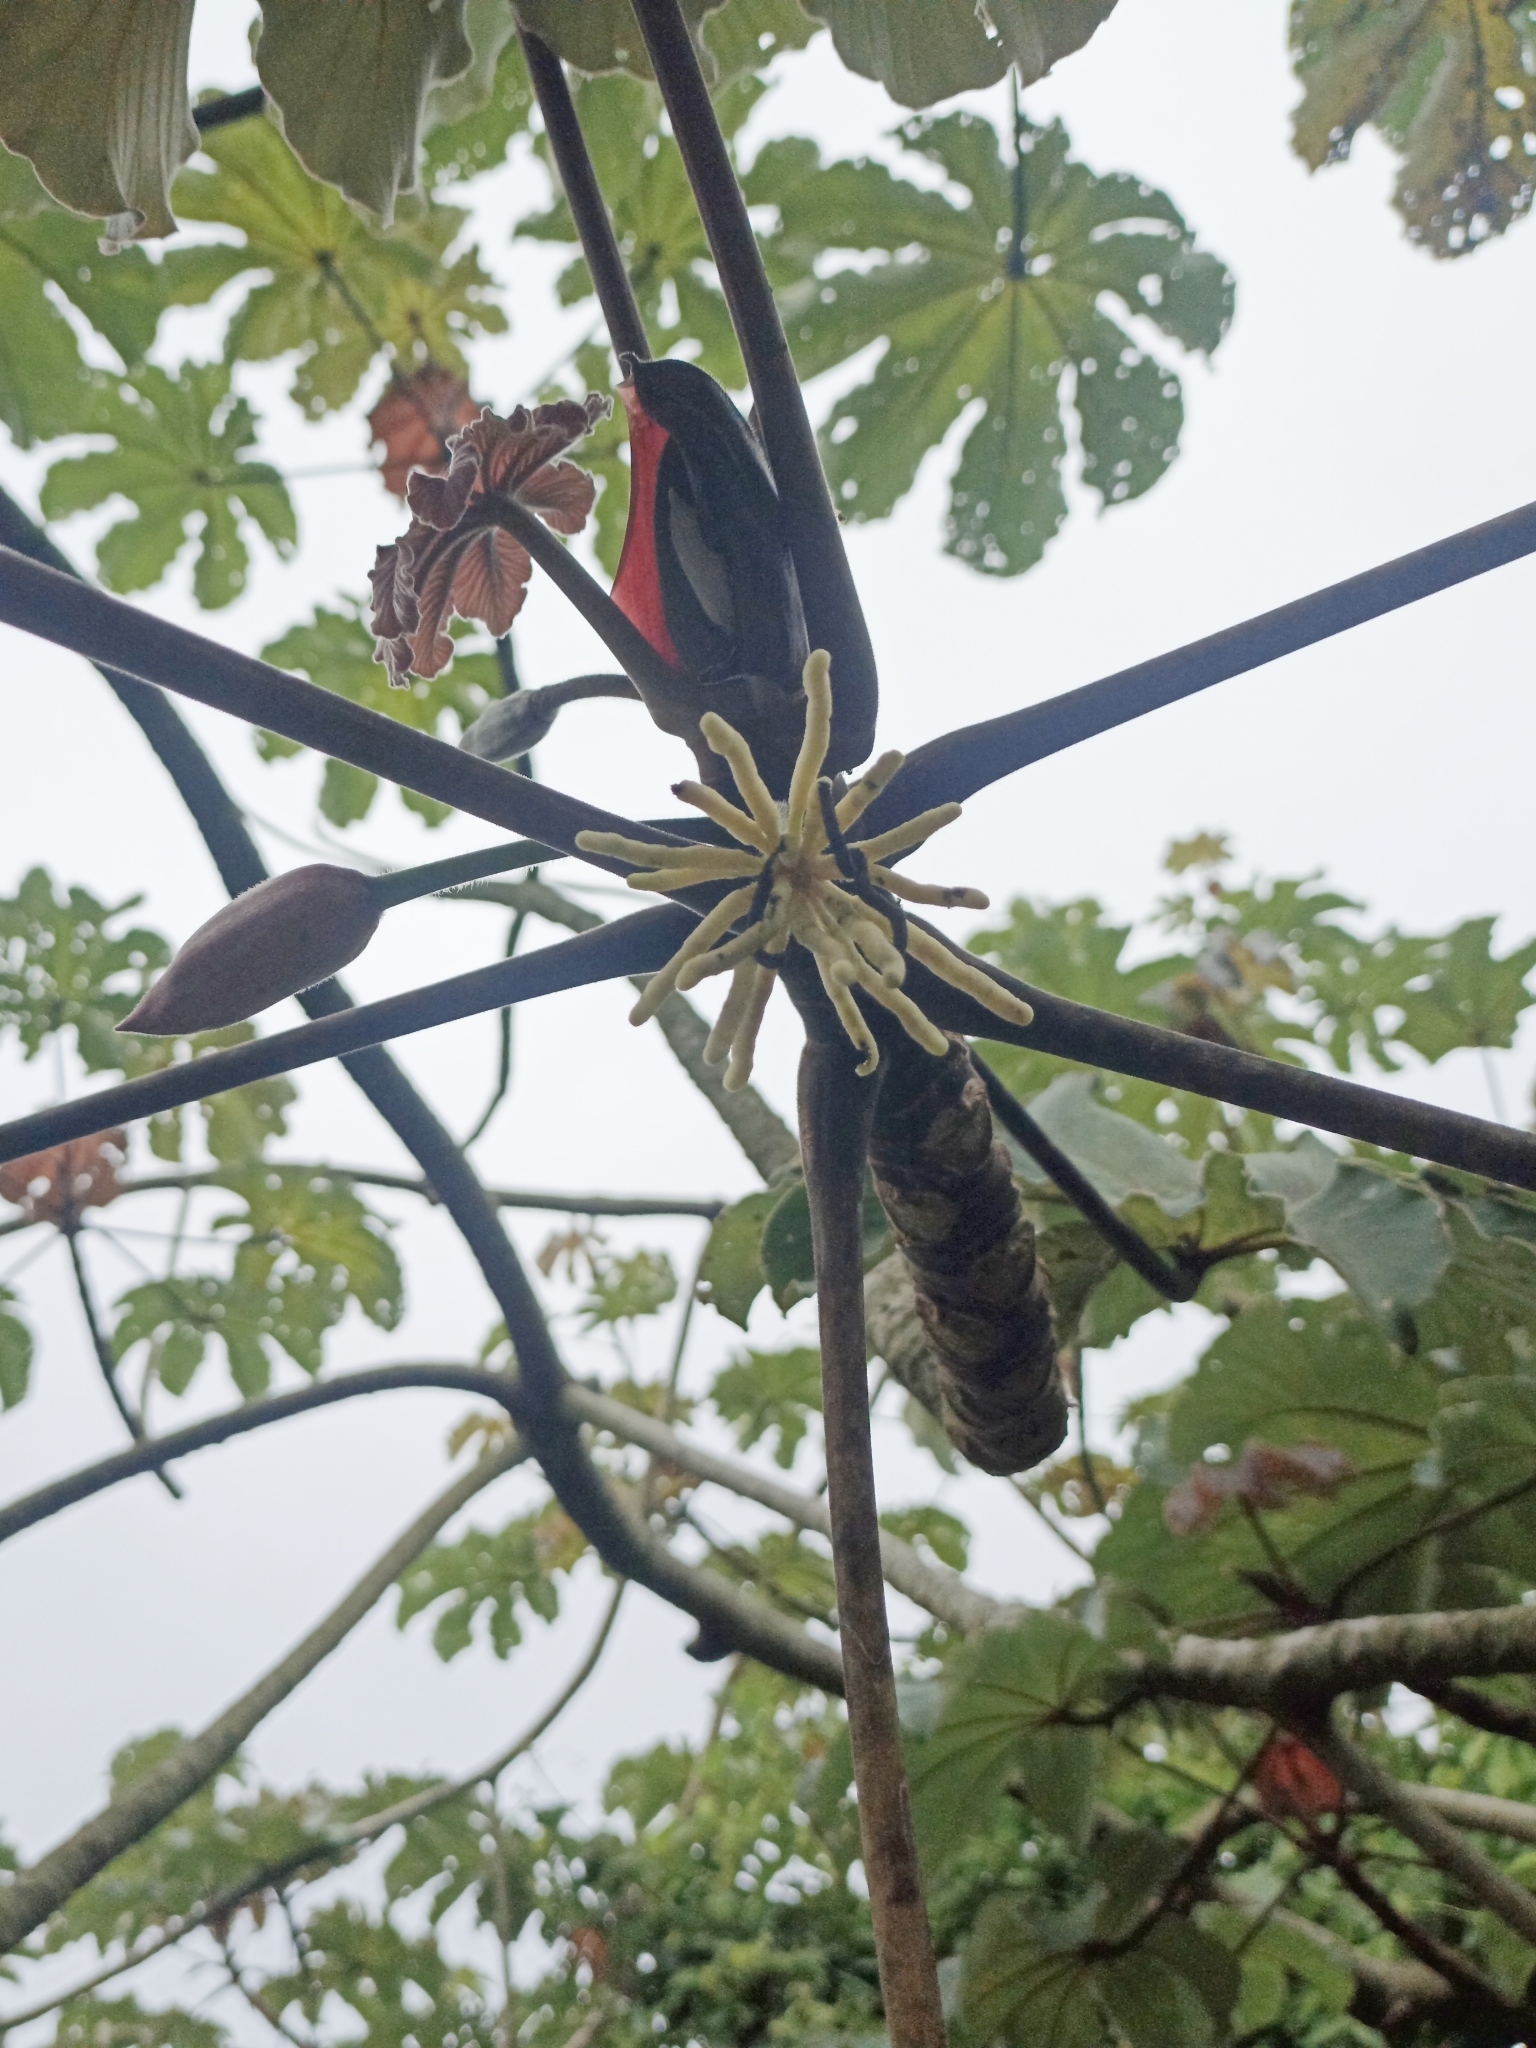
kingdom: Plantae
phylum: Tracheophyta
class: Magnoliopsida
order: Rosales
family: Urticaceae
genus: Cecropia
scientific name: Cecropia peltata
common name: Trumpet-tree
